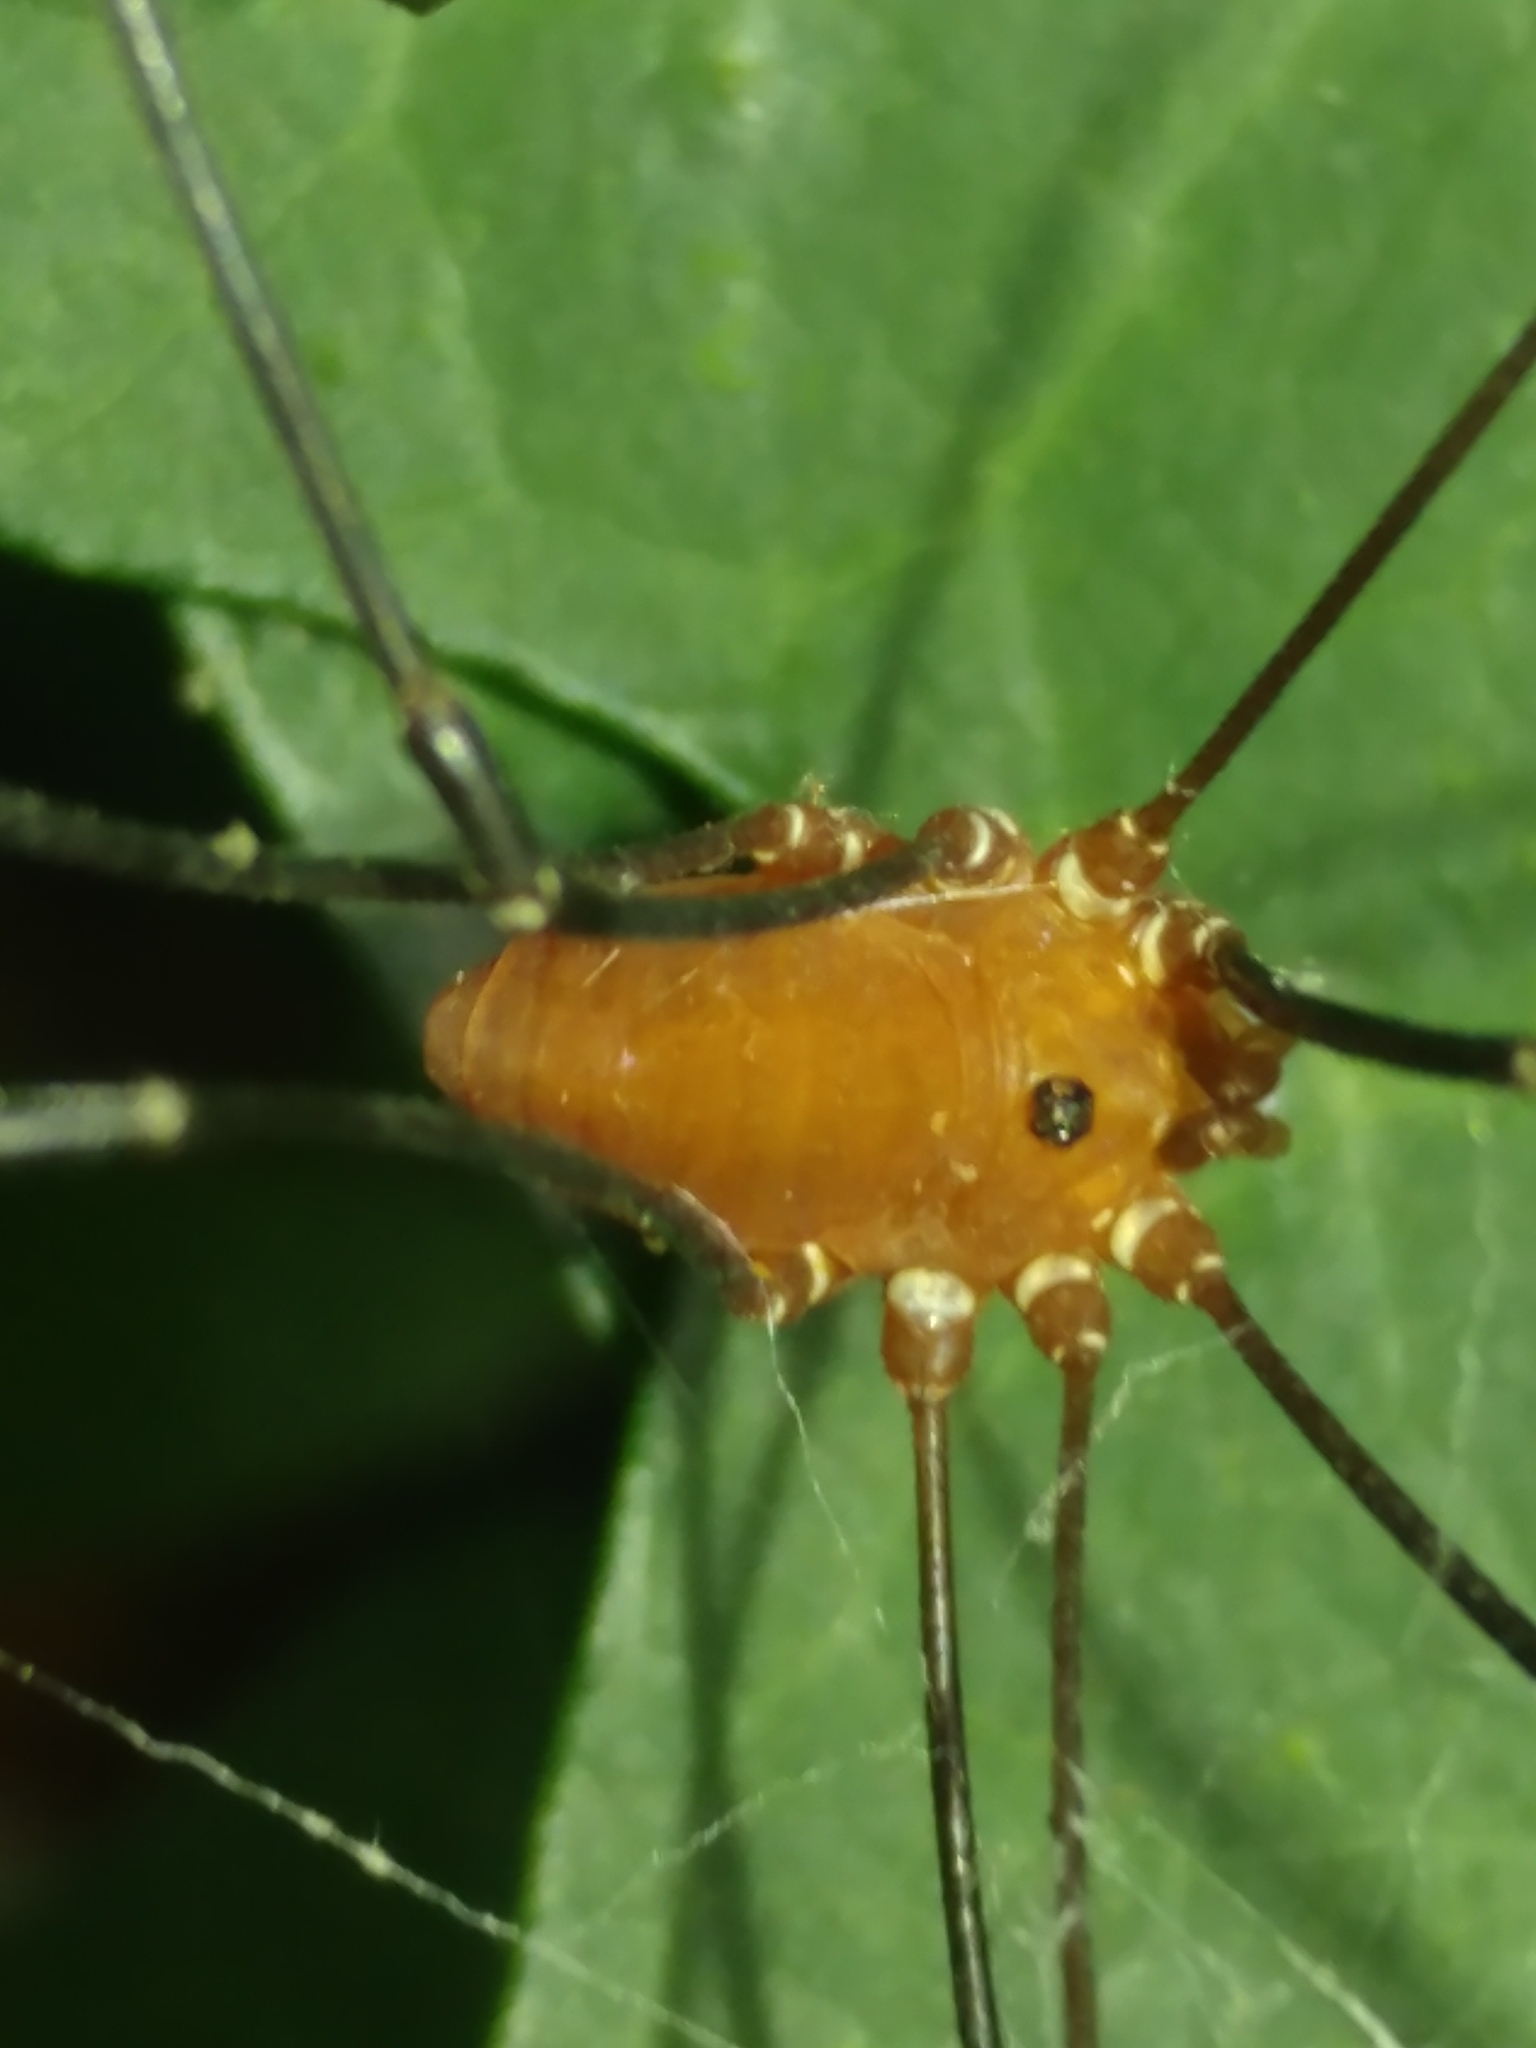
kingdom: Animalia
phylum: Arthropoda
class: Arachnida
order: Opiliones
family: Sclerosomatidae
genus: Leiobunum
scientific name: Leiobunum euserratipalpe
